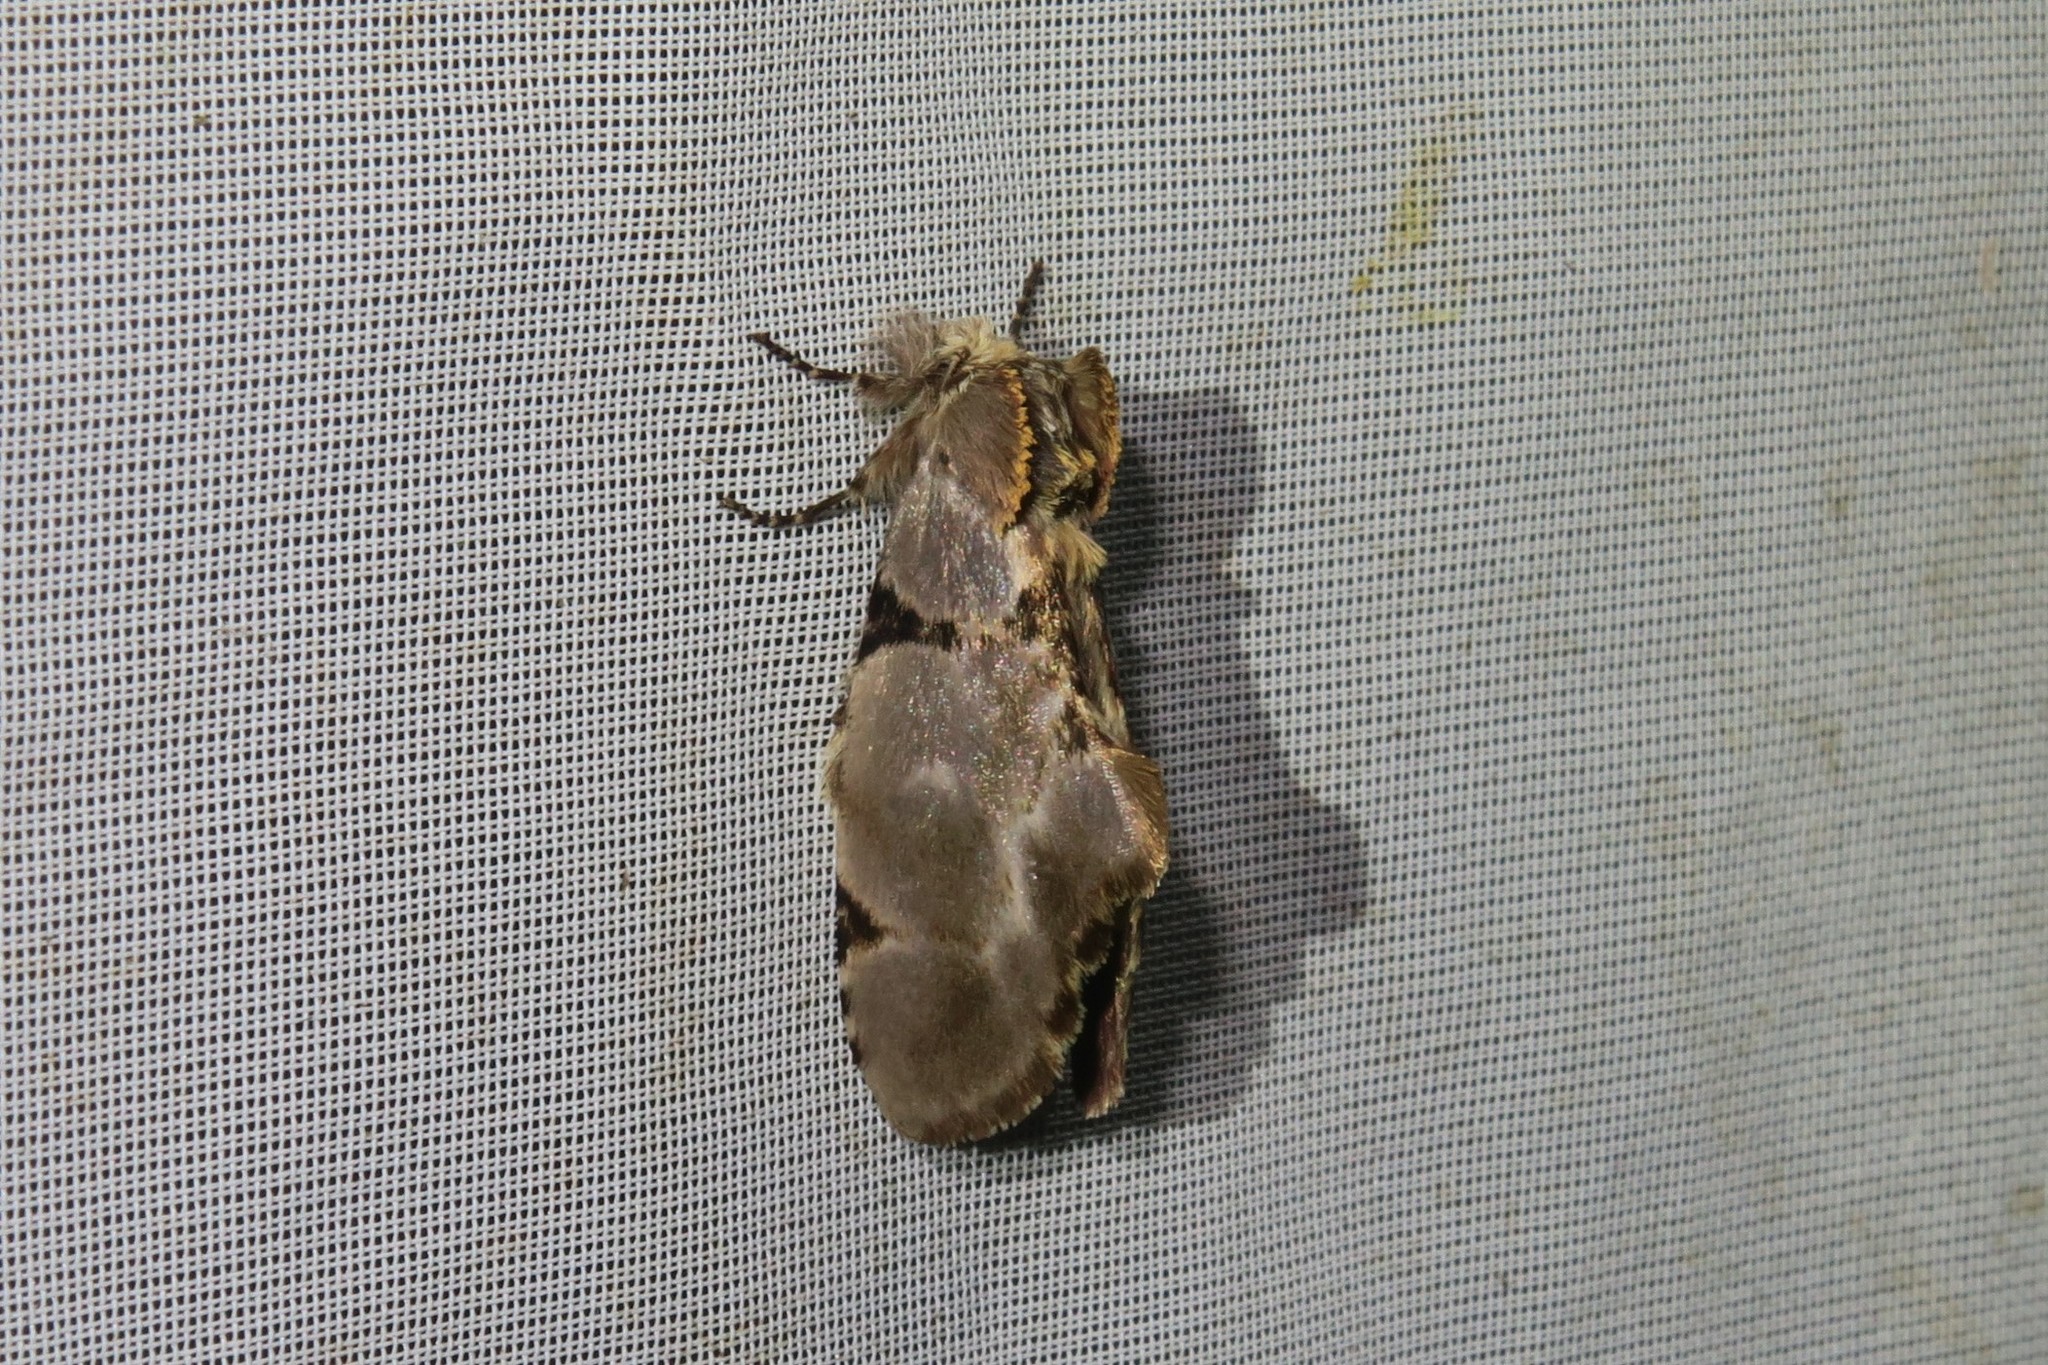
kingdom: Animalia
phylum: Arthropoda
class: Insecta
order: Lepidoptera
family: Notodontidae
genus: Dognina
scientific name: Dognina veltini
